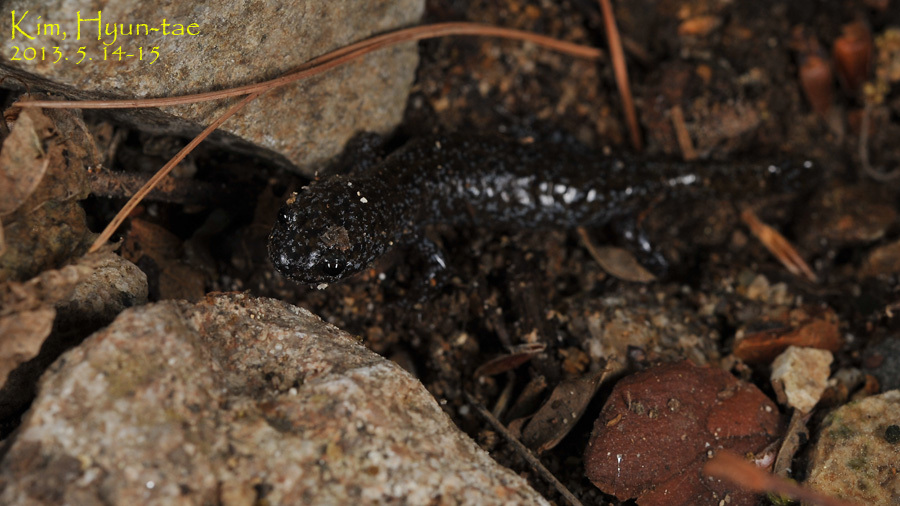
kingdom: Animalia
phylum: Chordata
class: Amphibia
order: Caudata
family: Hynobiidae
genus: Hynobius
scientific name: Hynobius leechii
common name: Gensan salamander
